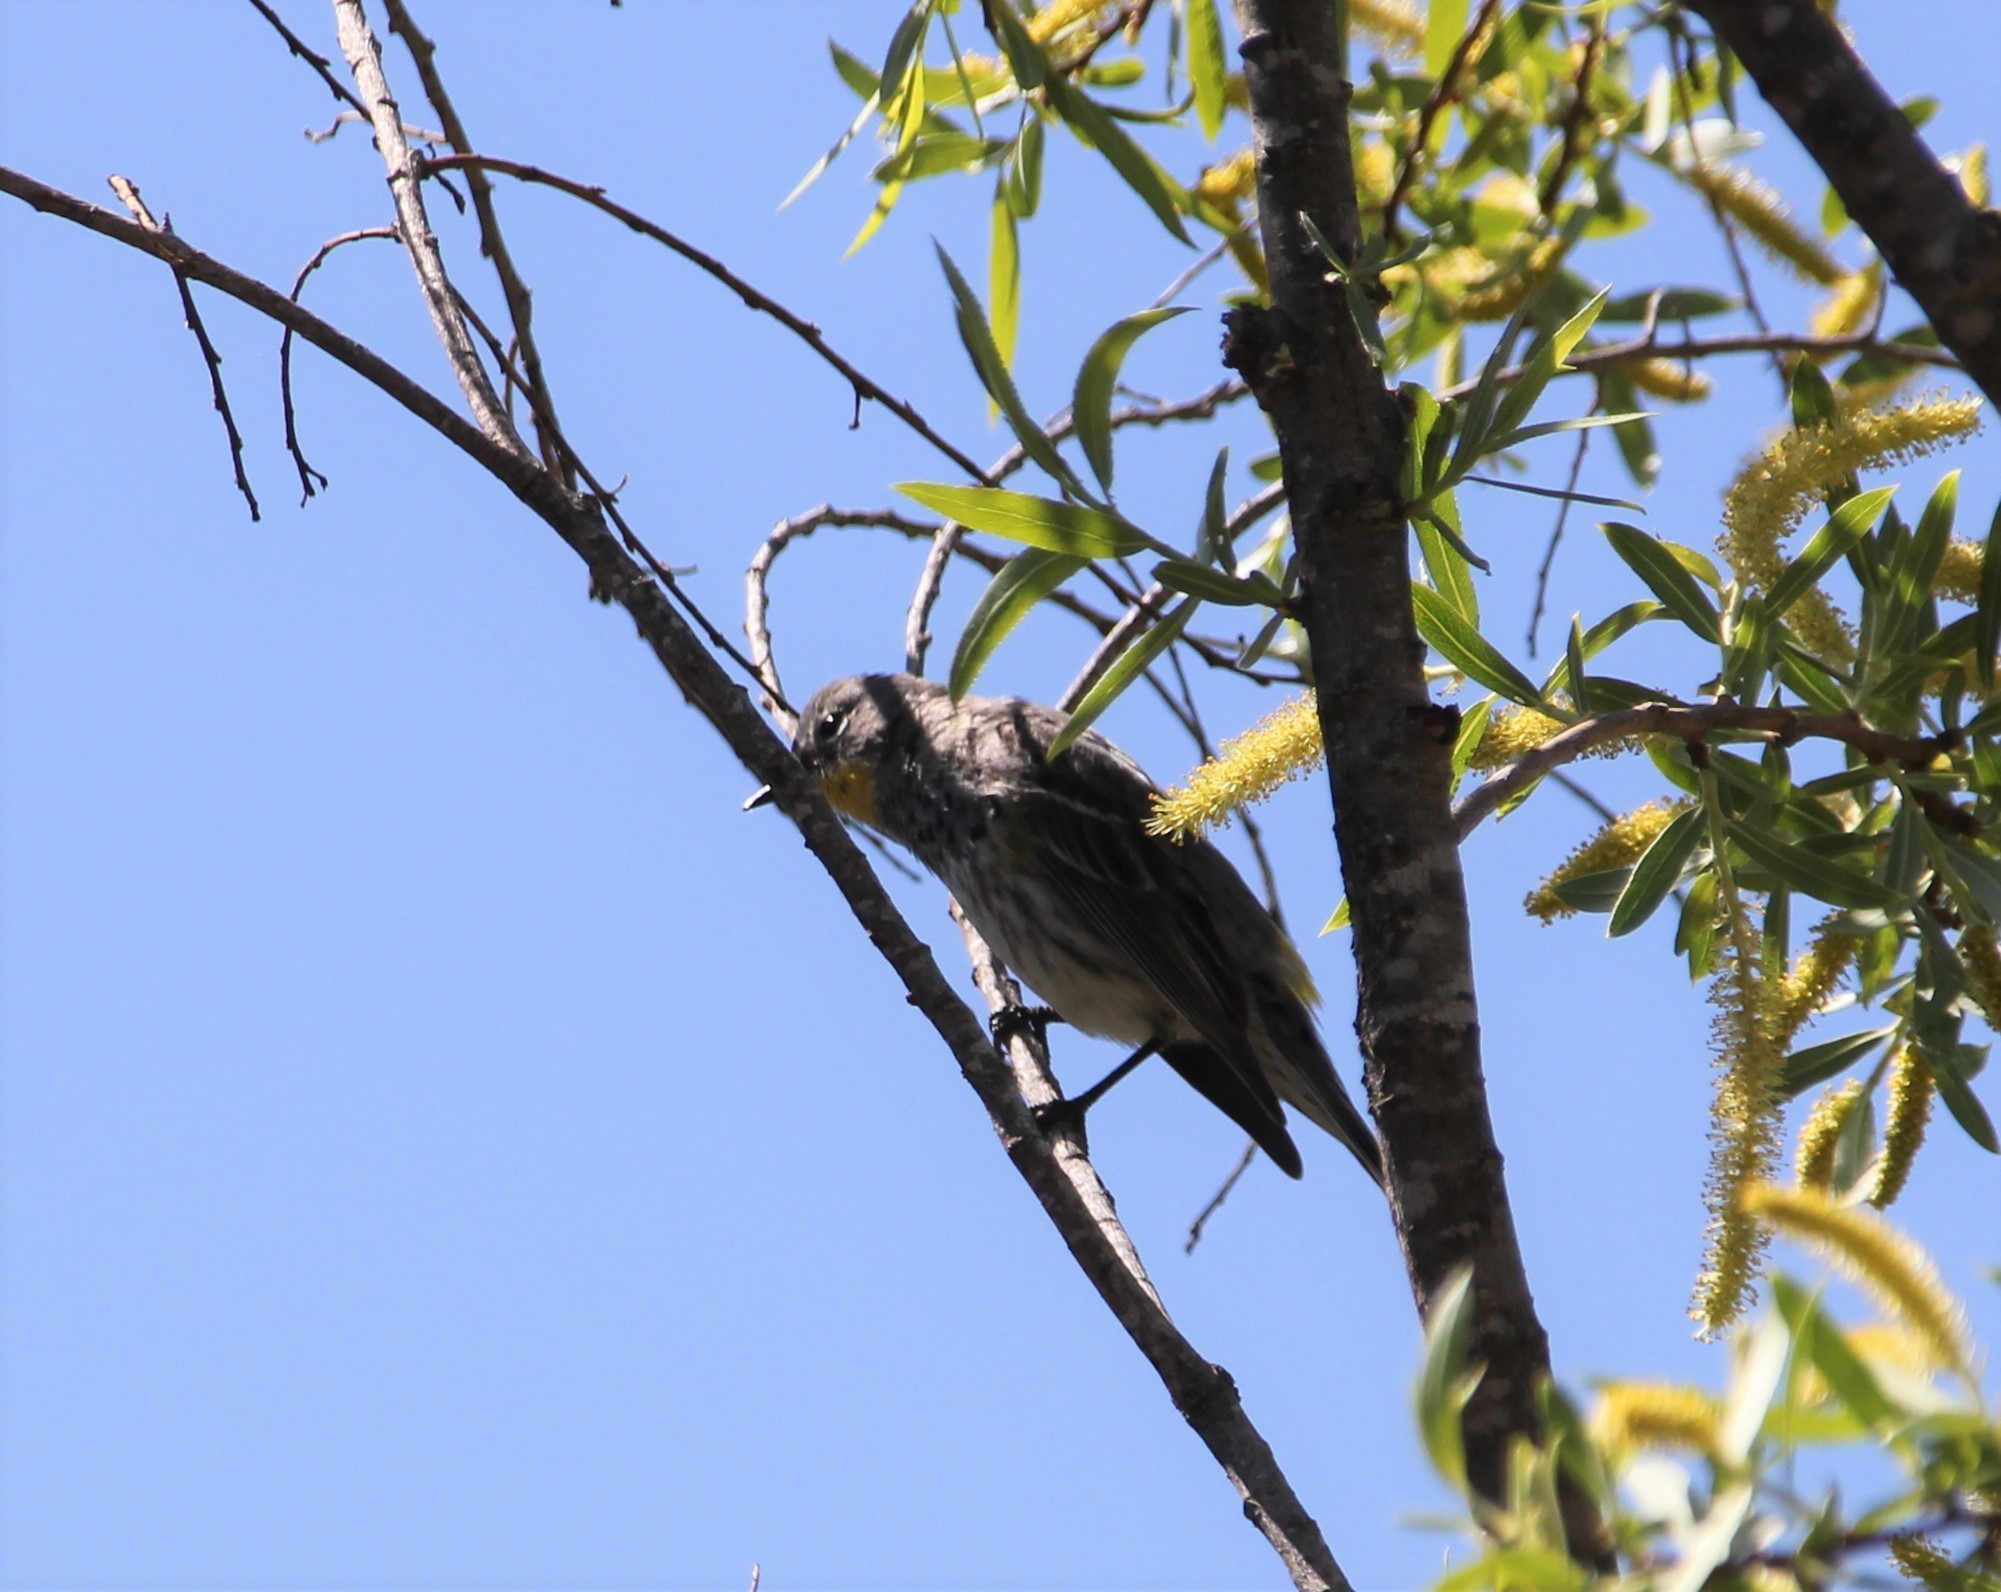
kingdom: Animalia
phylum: Chordata
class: Aves
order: Passeriformes
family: Parulidae
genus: Setophaga
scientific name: Setophaga auduboni
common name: Audubon's warbler
